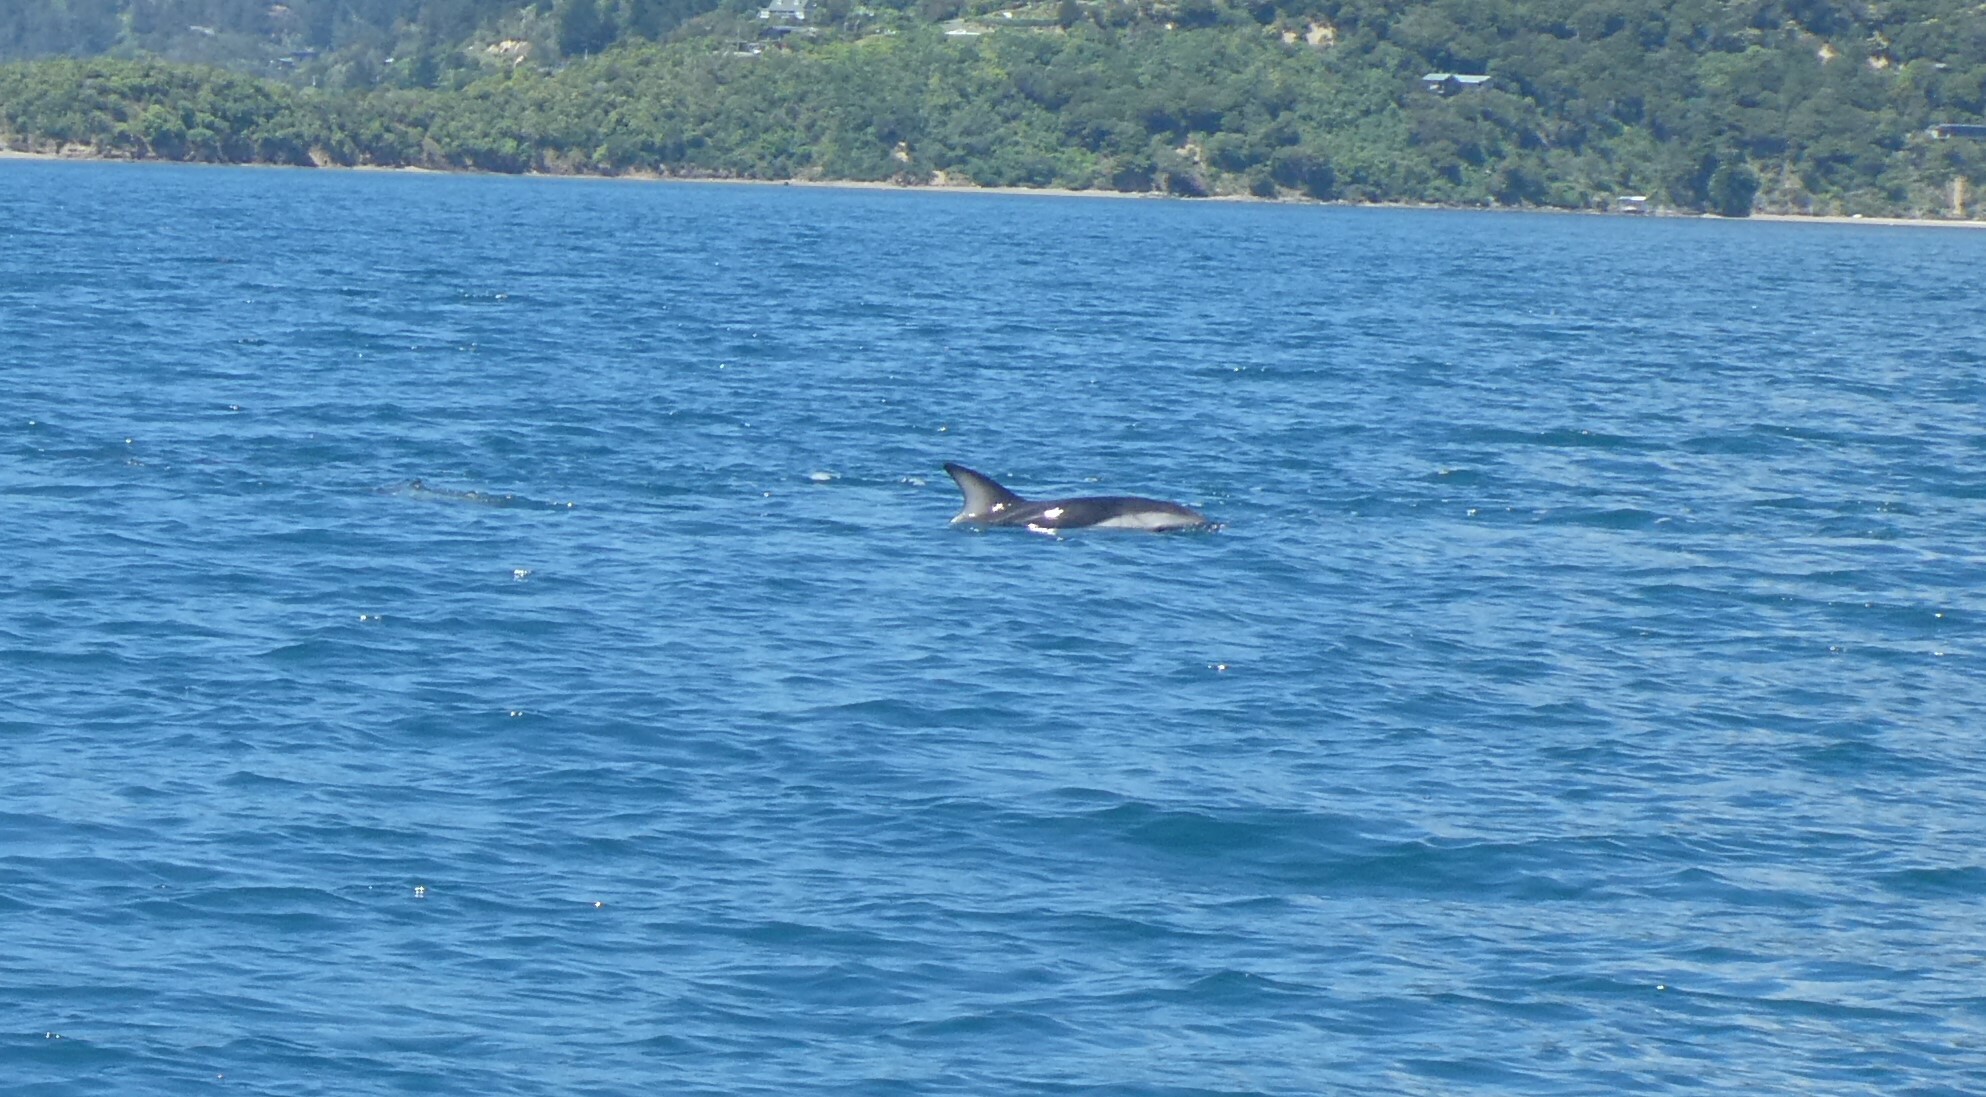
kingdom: Animalia
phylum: Chordata
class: Mammalia
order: Cetacea
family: Delphinidae
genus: Lagenorhynchus
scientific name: Lagenorhynchus obscurus
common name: Dusky dolphin
